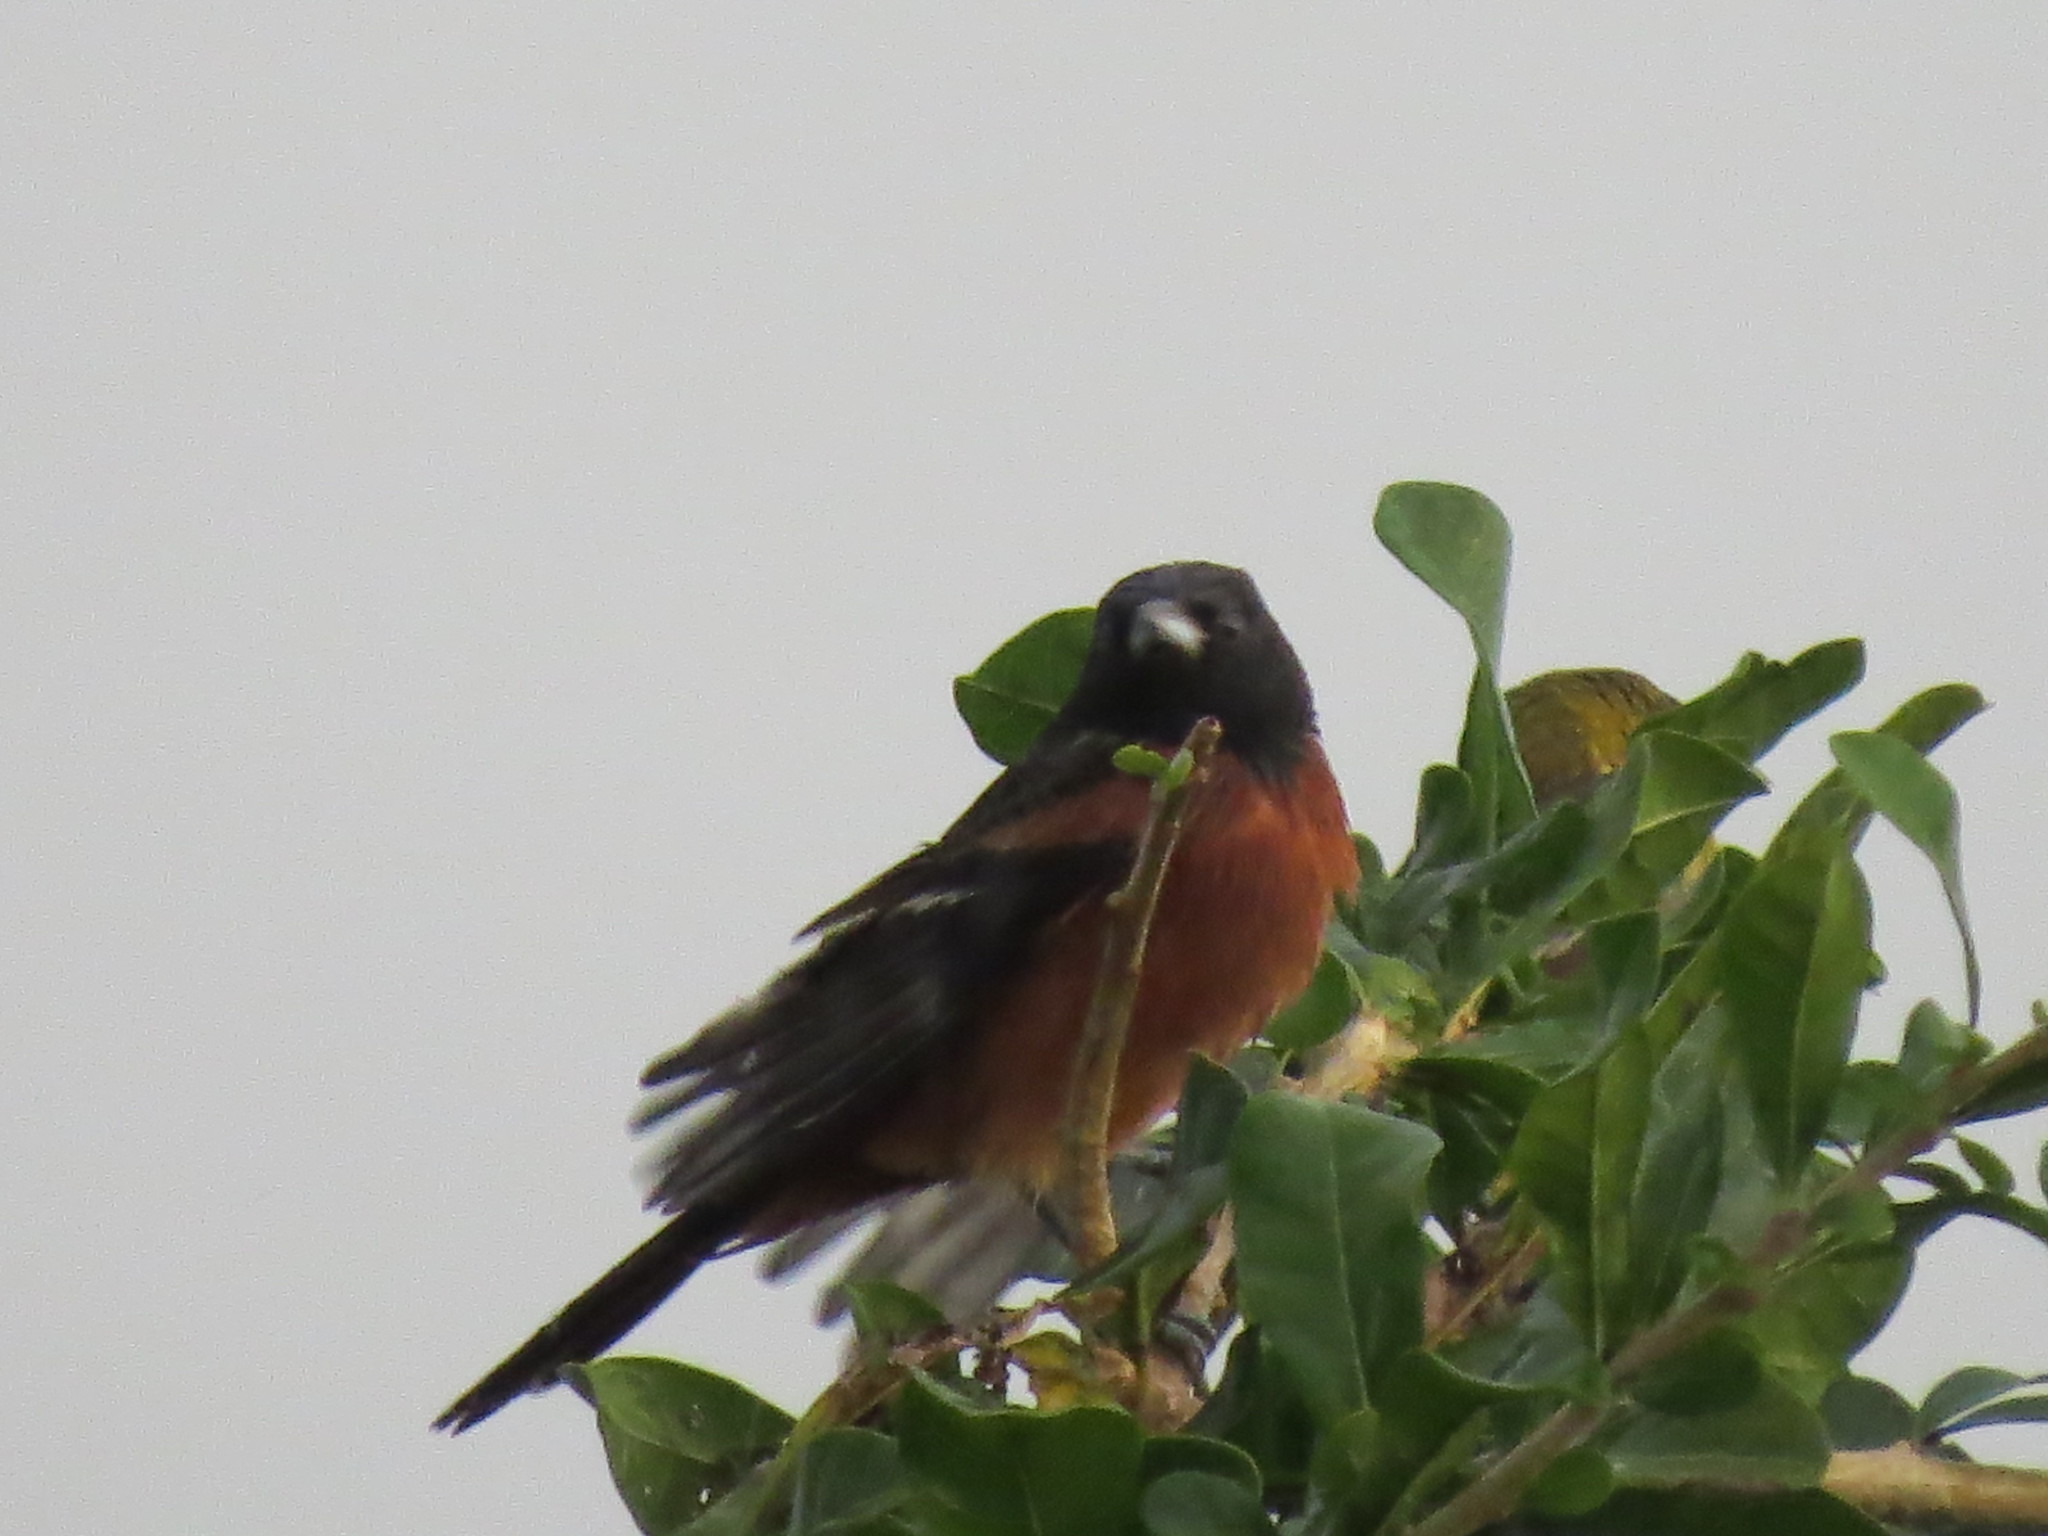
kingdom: Animalia
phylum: Chordata
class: Aves
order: Passeriformes
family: Icteridae
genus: Icterus
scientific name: Icterus spurius
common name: Orchard oriole
